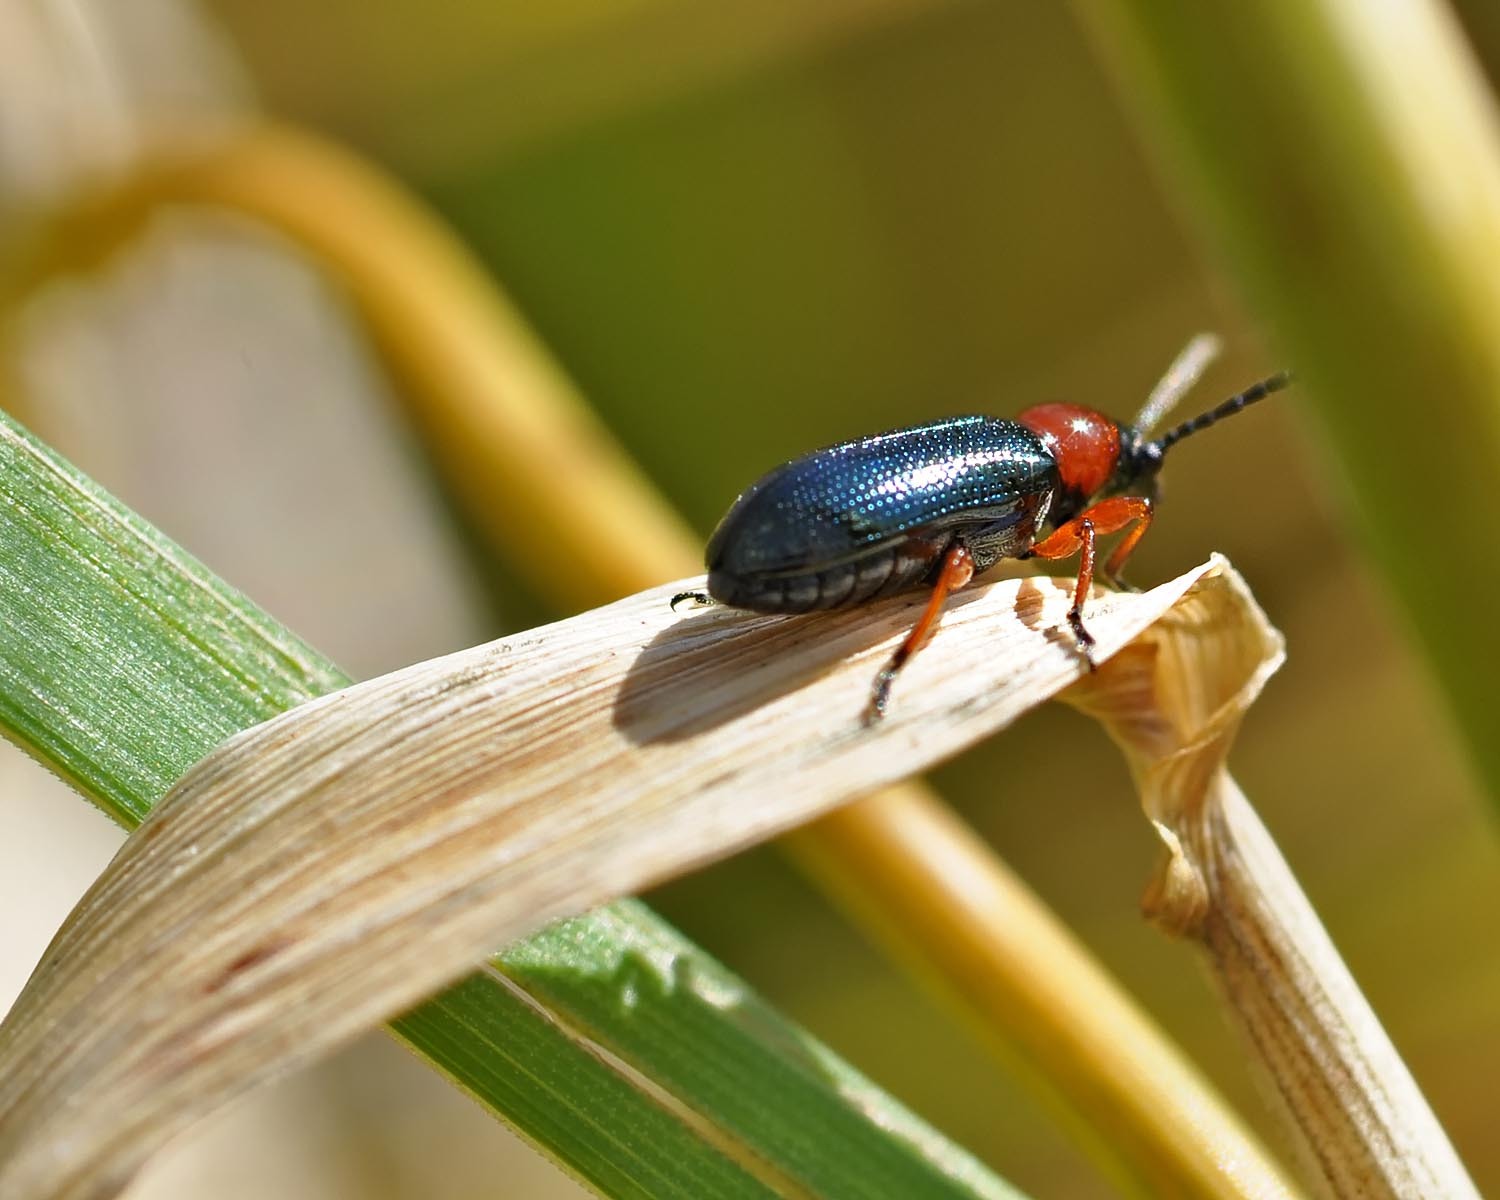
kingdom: Animalia
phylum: Arthropoda
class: Insecta
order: Coleoptera
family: Chrysomelidae
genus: Oulema
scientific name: Oulema
